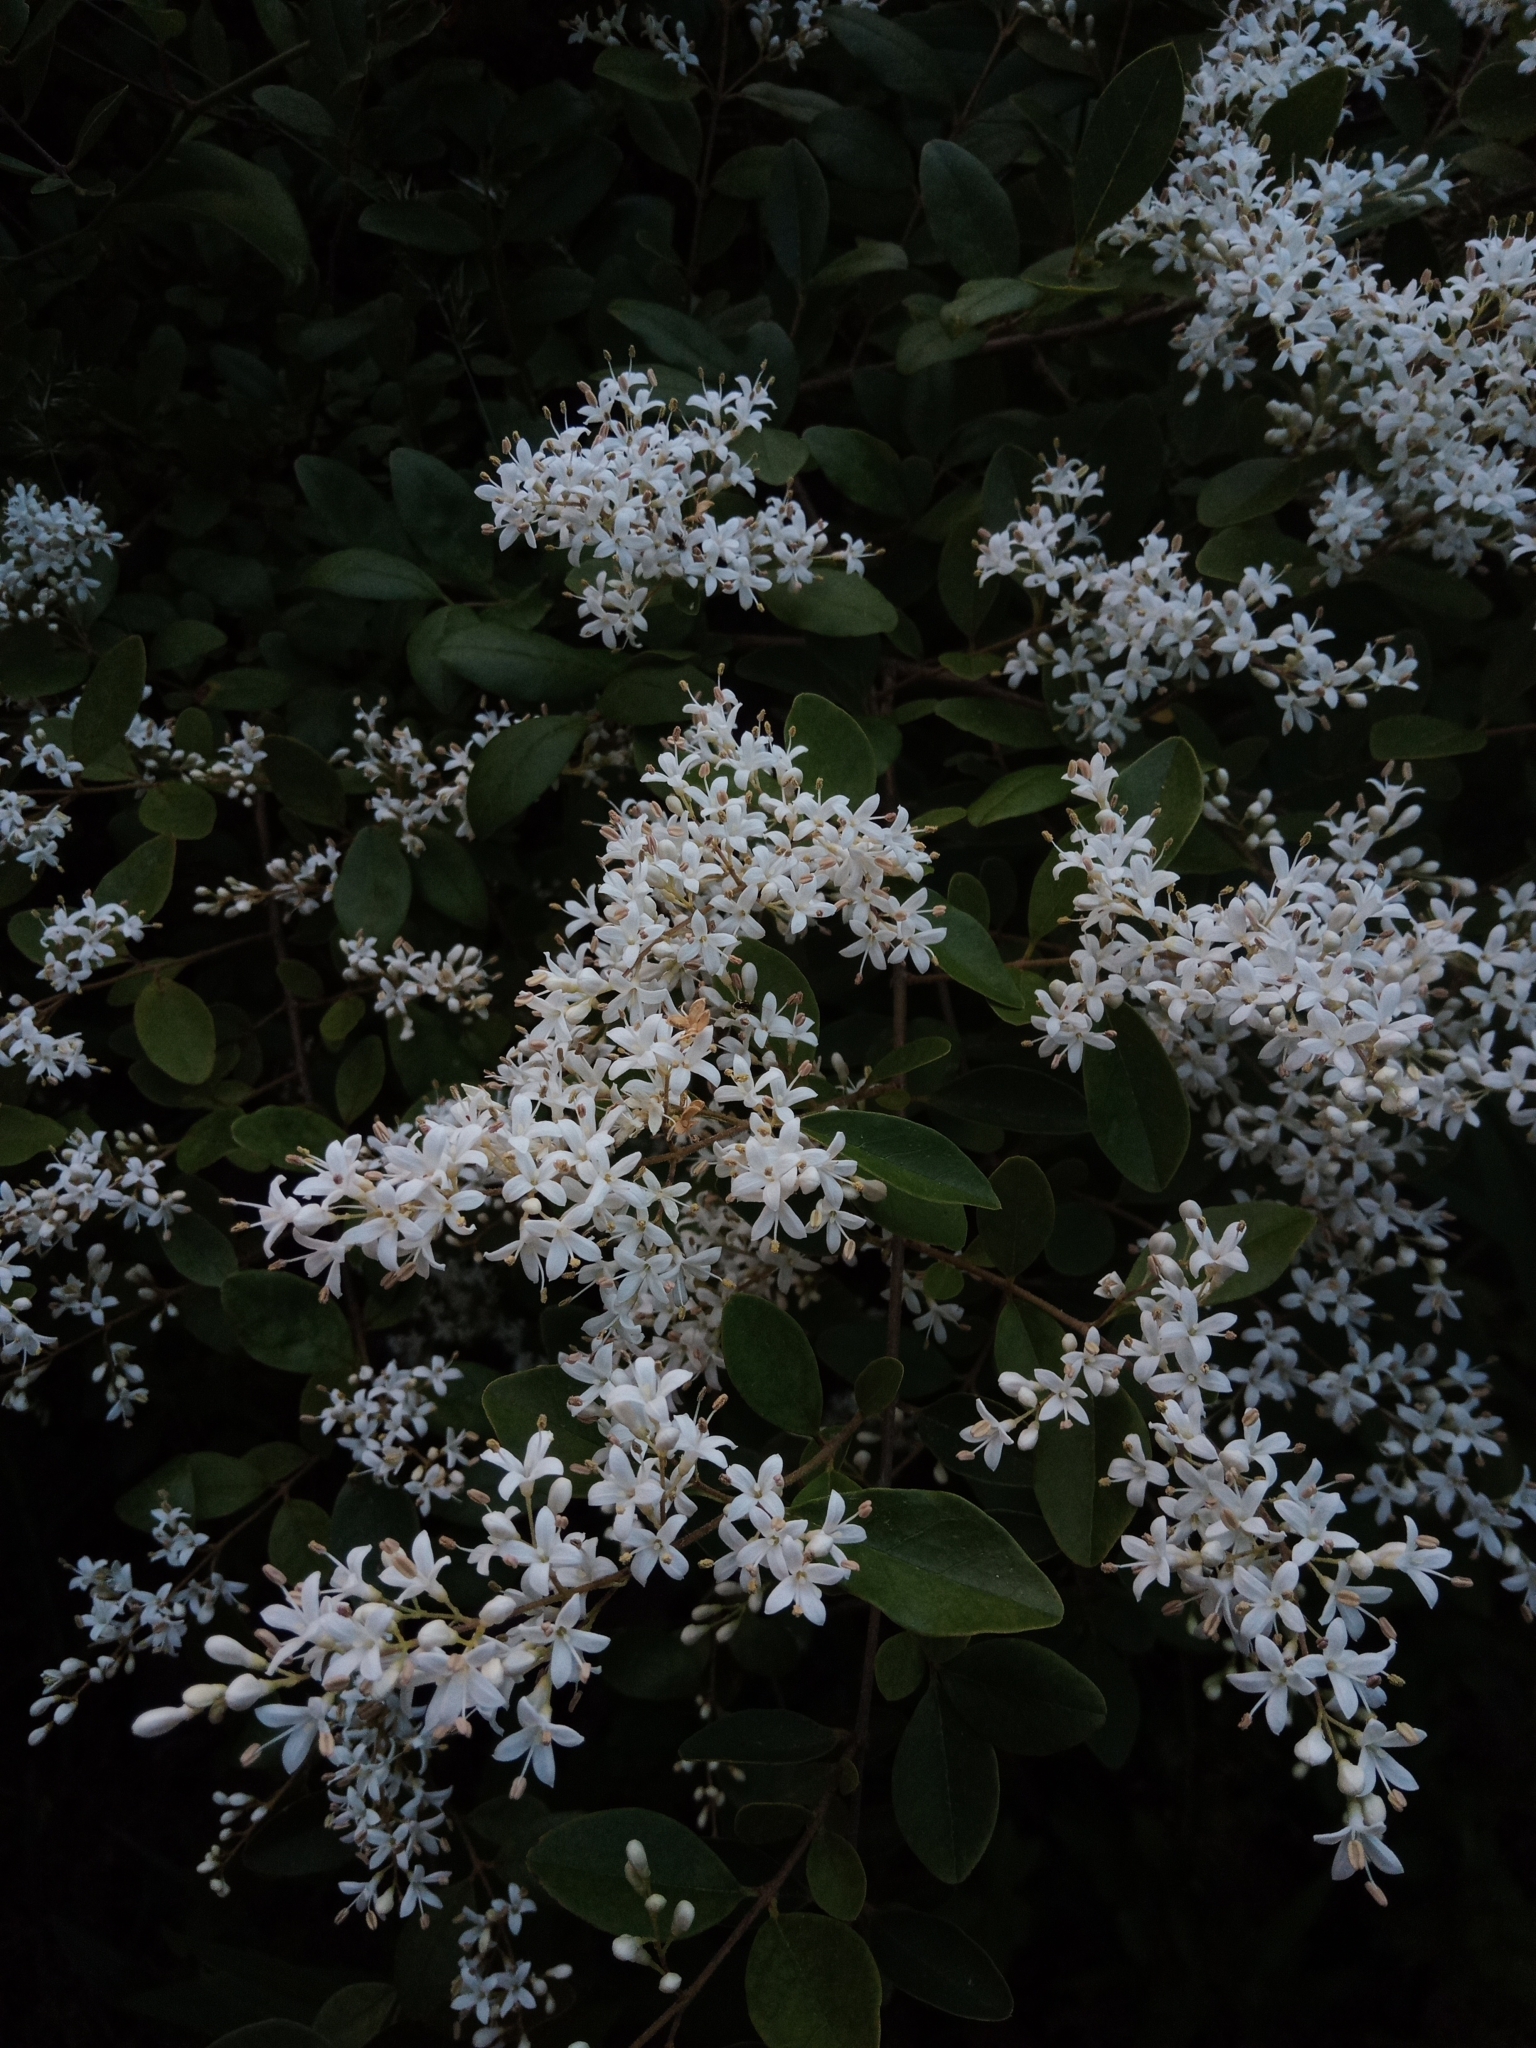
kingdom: Plantae
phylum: Tracheophyta
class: Magnoliopsida
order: Lamiales
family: Oleaceae
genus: Ligustrum
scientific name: Ligustrum sinense
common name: Chinese privet
